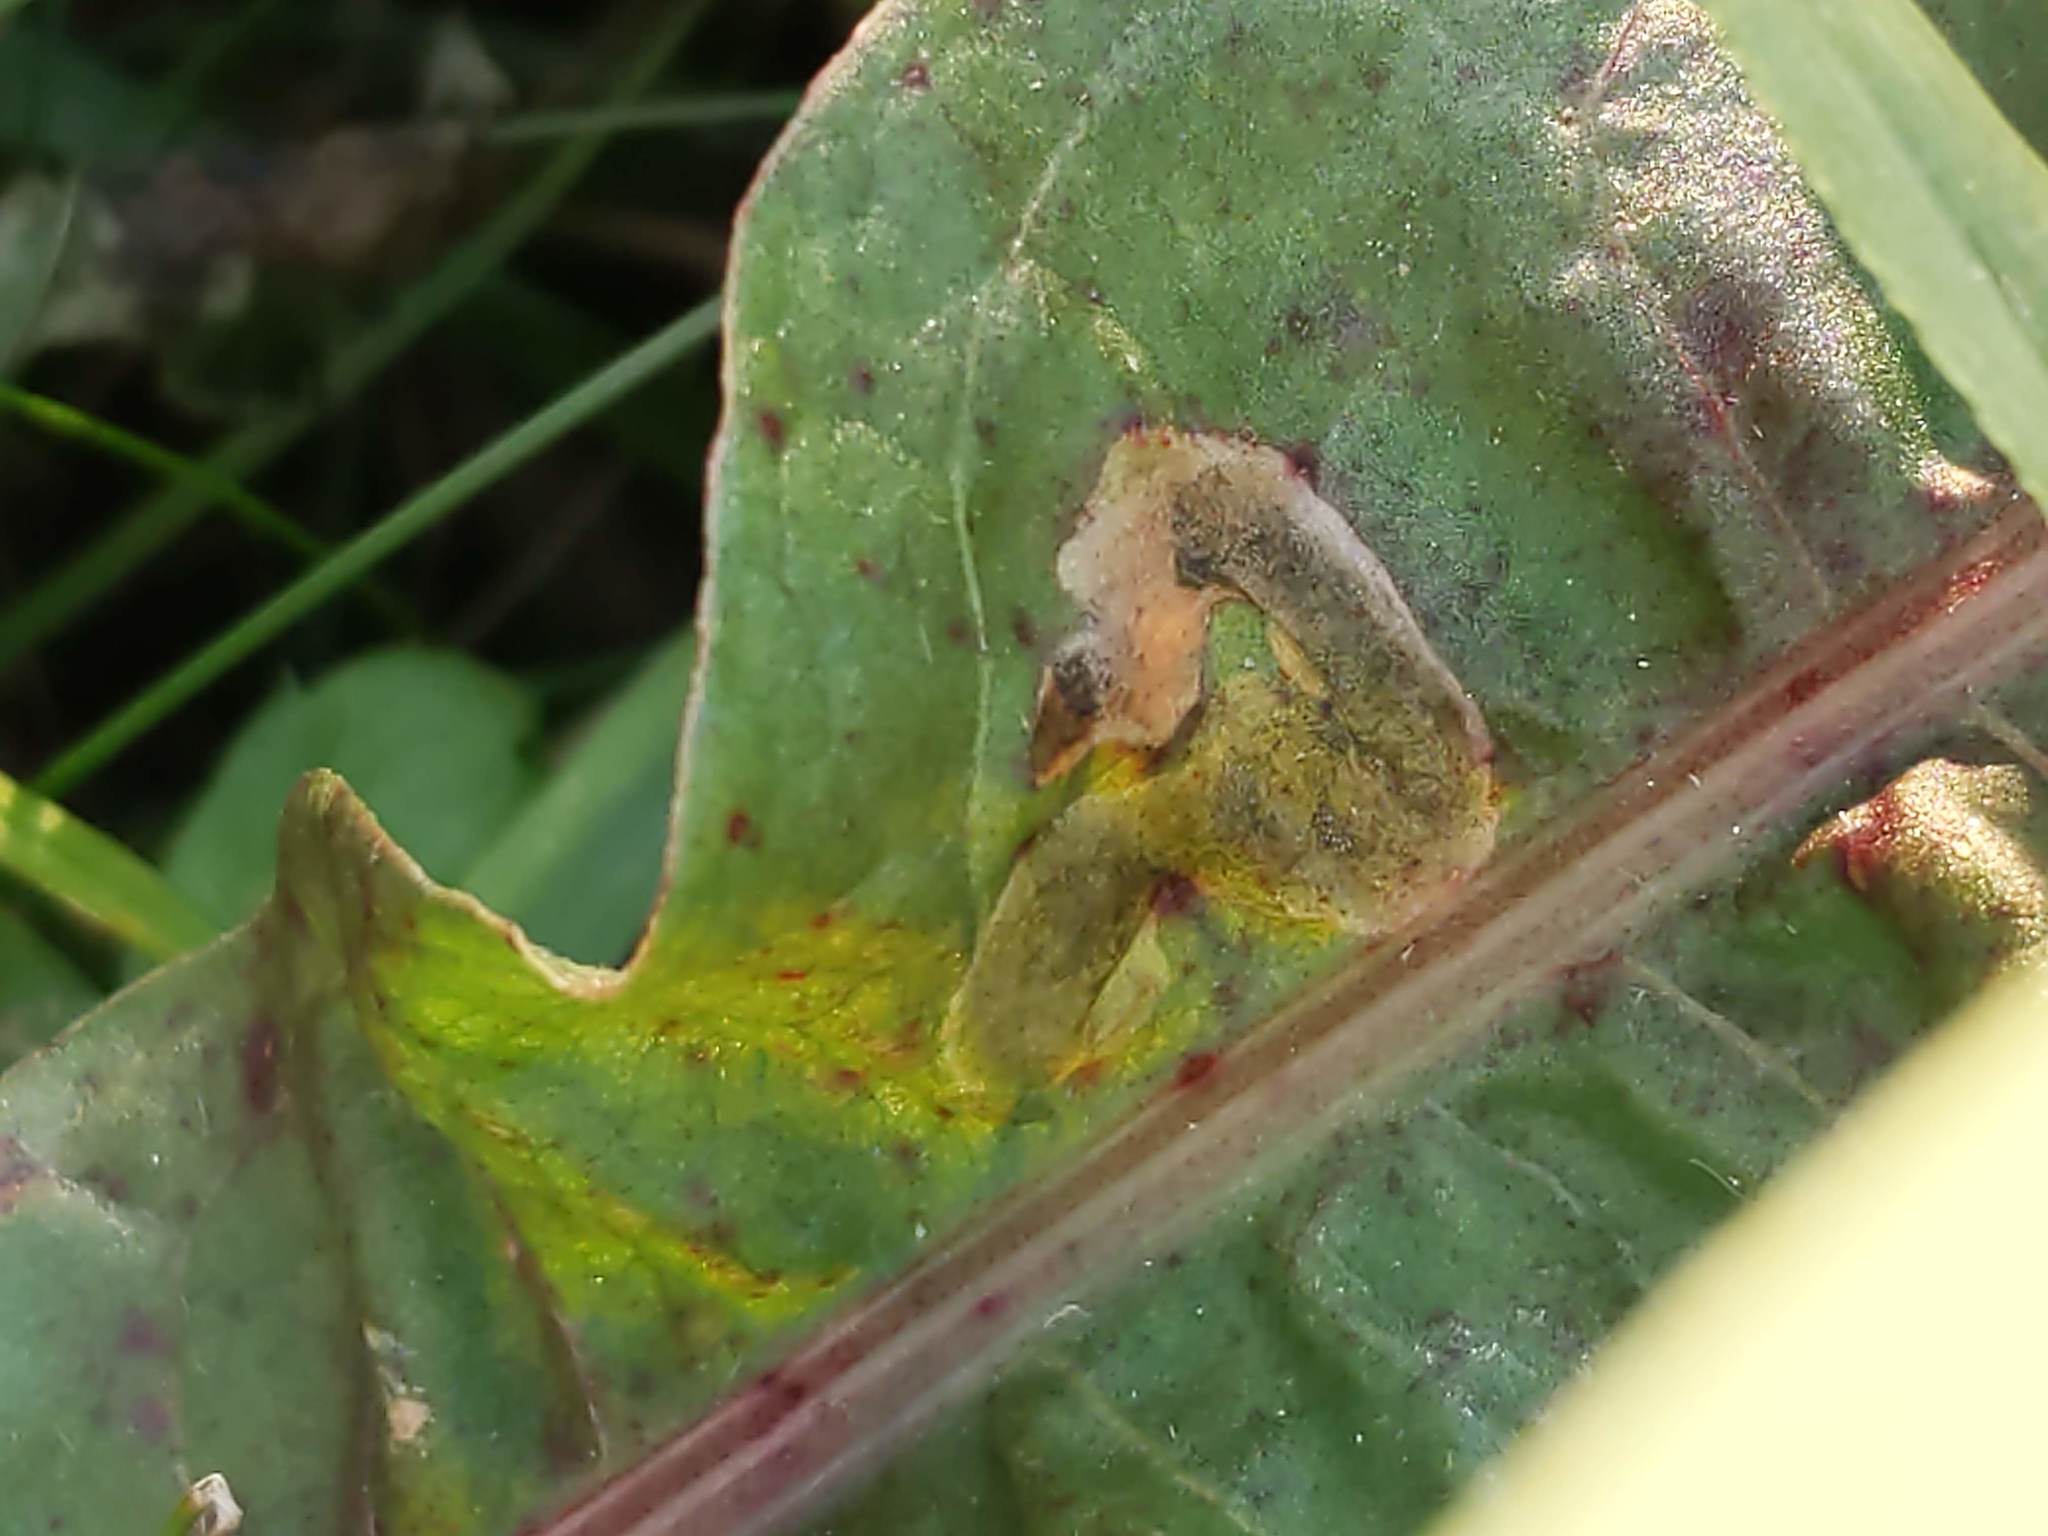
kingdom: Animalia
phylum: Arthropoda
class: Insecta
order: Diptera
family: Anthomyiidae
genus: Pegomya
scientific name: Pegomya bicolor
